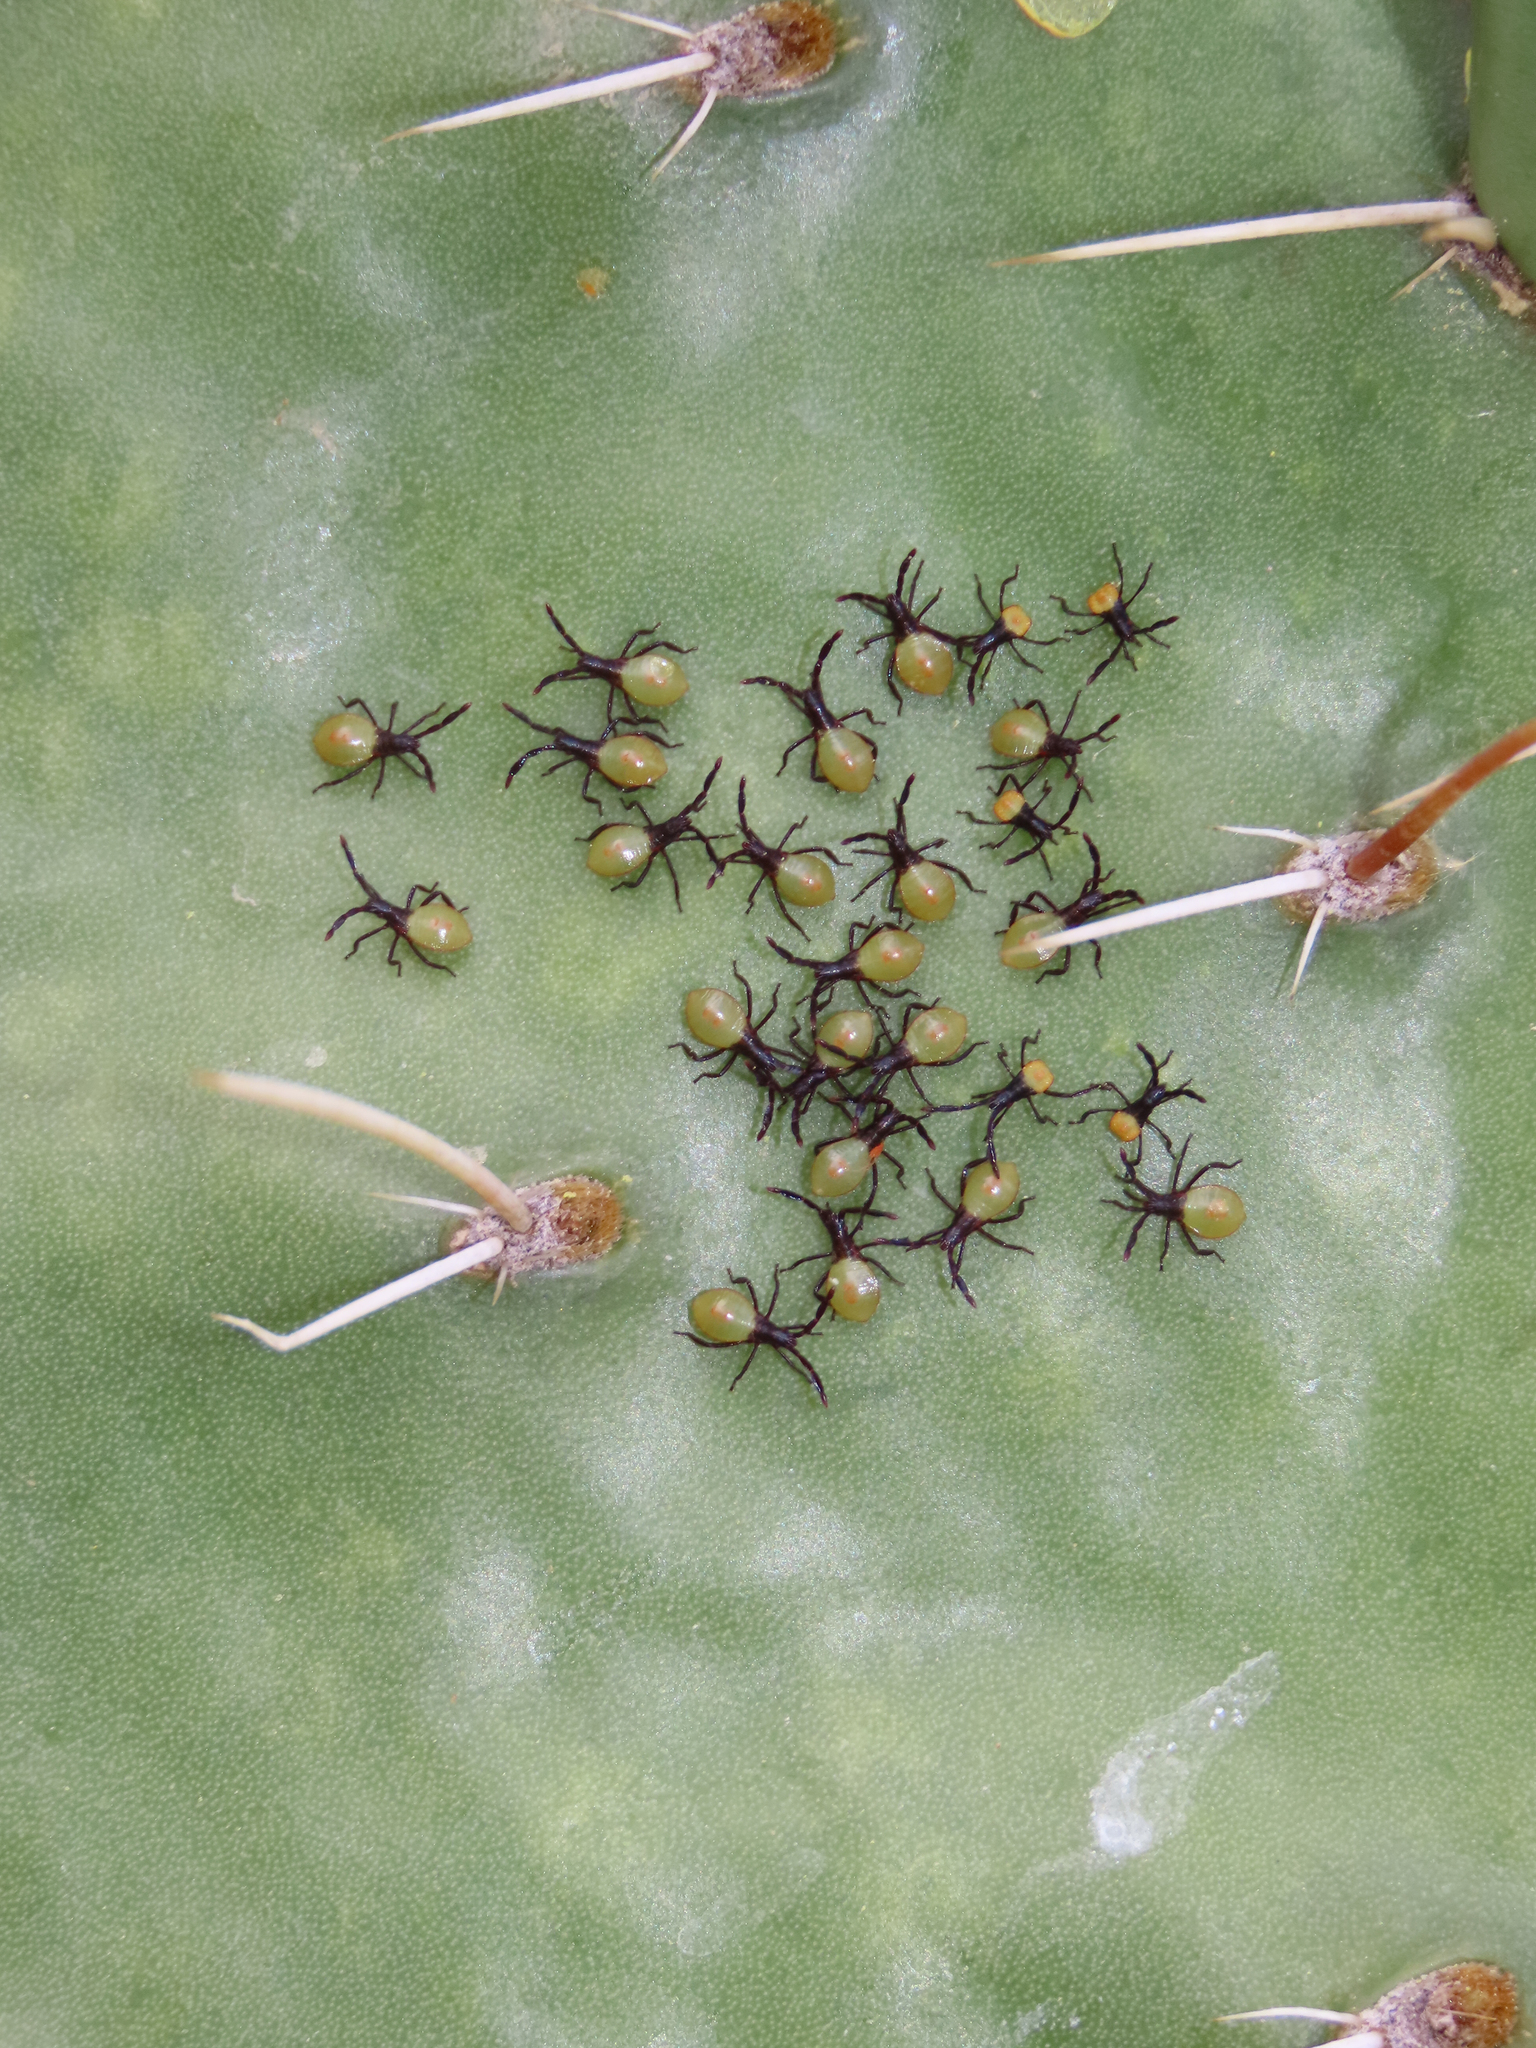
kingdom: Animalia
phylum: Arthropoda
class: Insecta
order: Hemiptera
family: Coreidae
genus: Chelinidea
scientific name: Chelinidea vittiger
